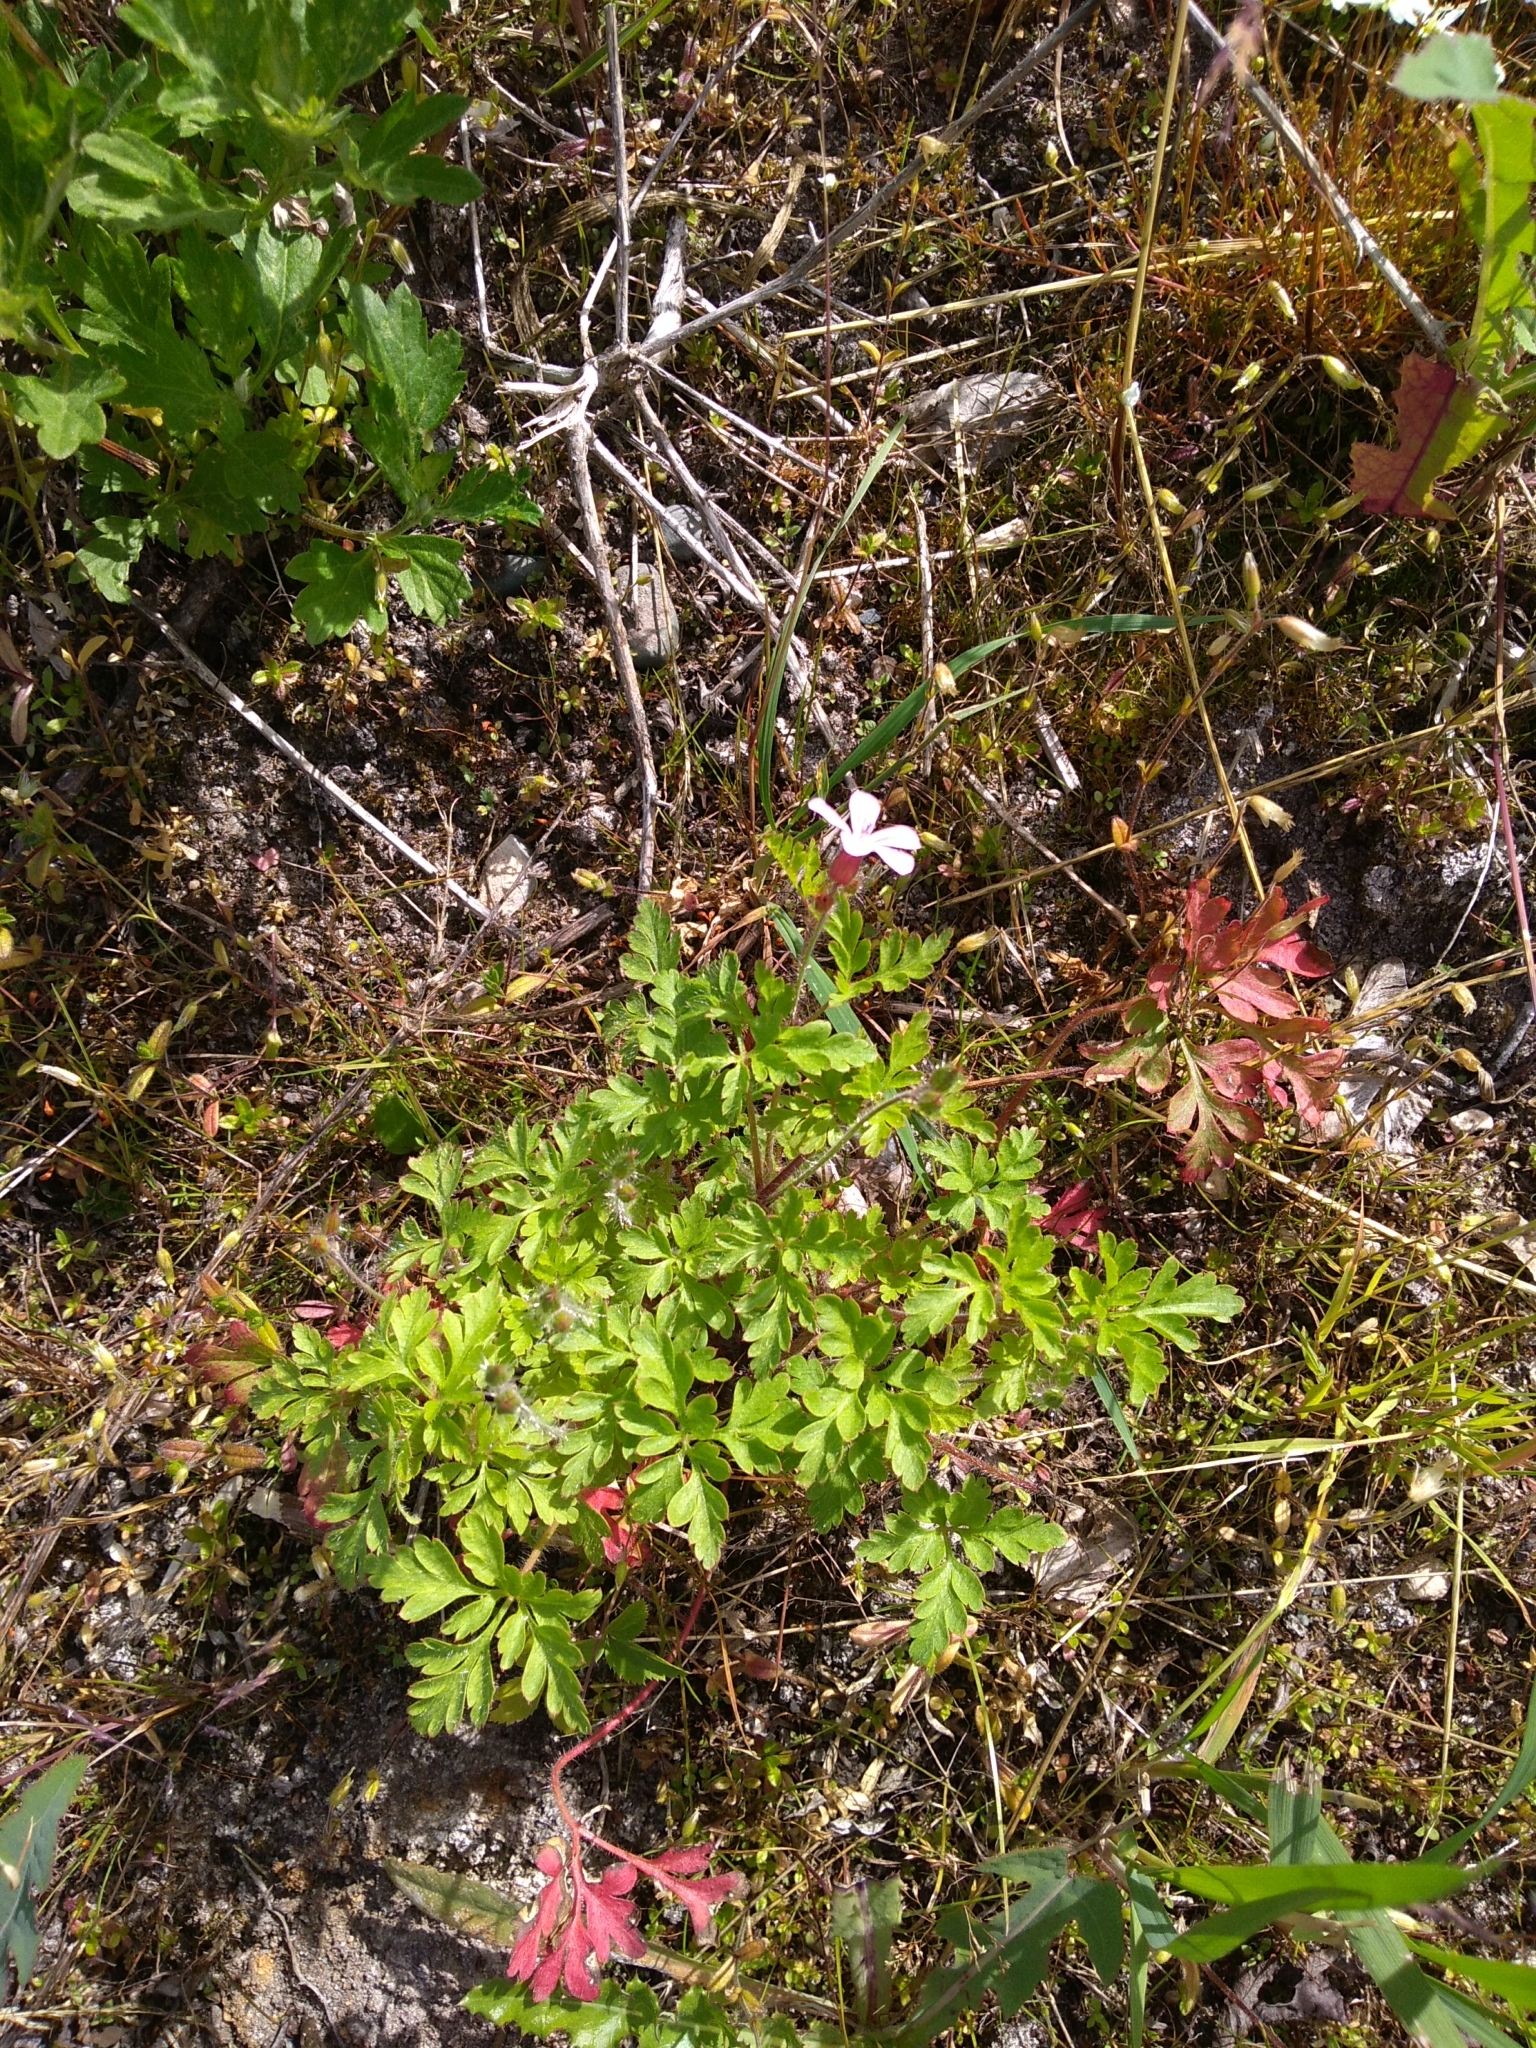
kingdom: Plantae
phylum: Tracheophyta
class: Magnoliopsida
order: Geraniales
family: Geraniaceae
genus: Geranium
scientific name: Geranium robertianum
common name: Herb-robert
